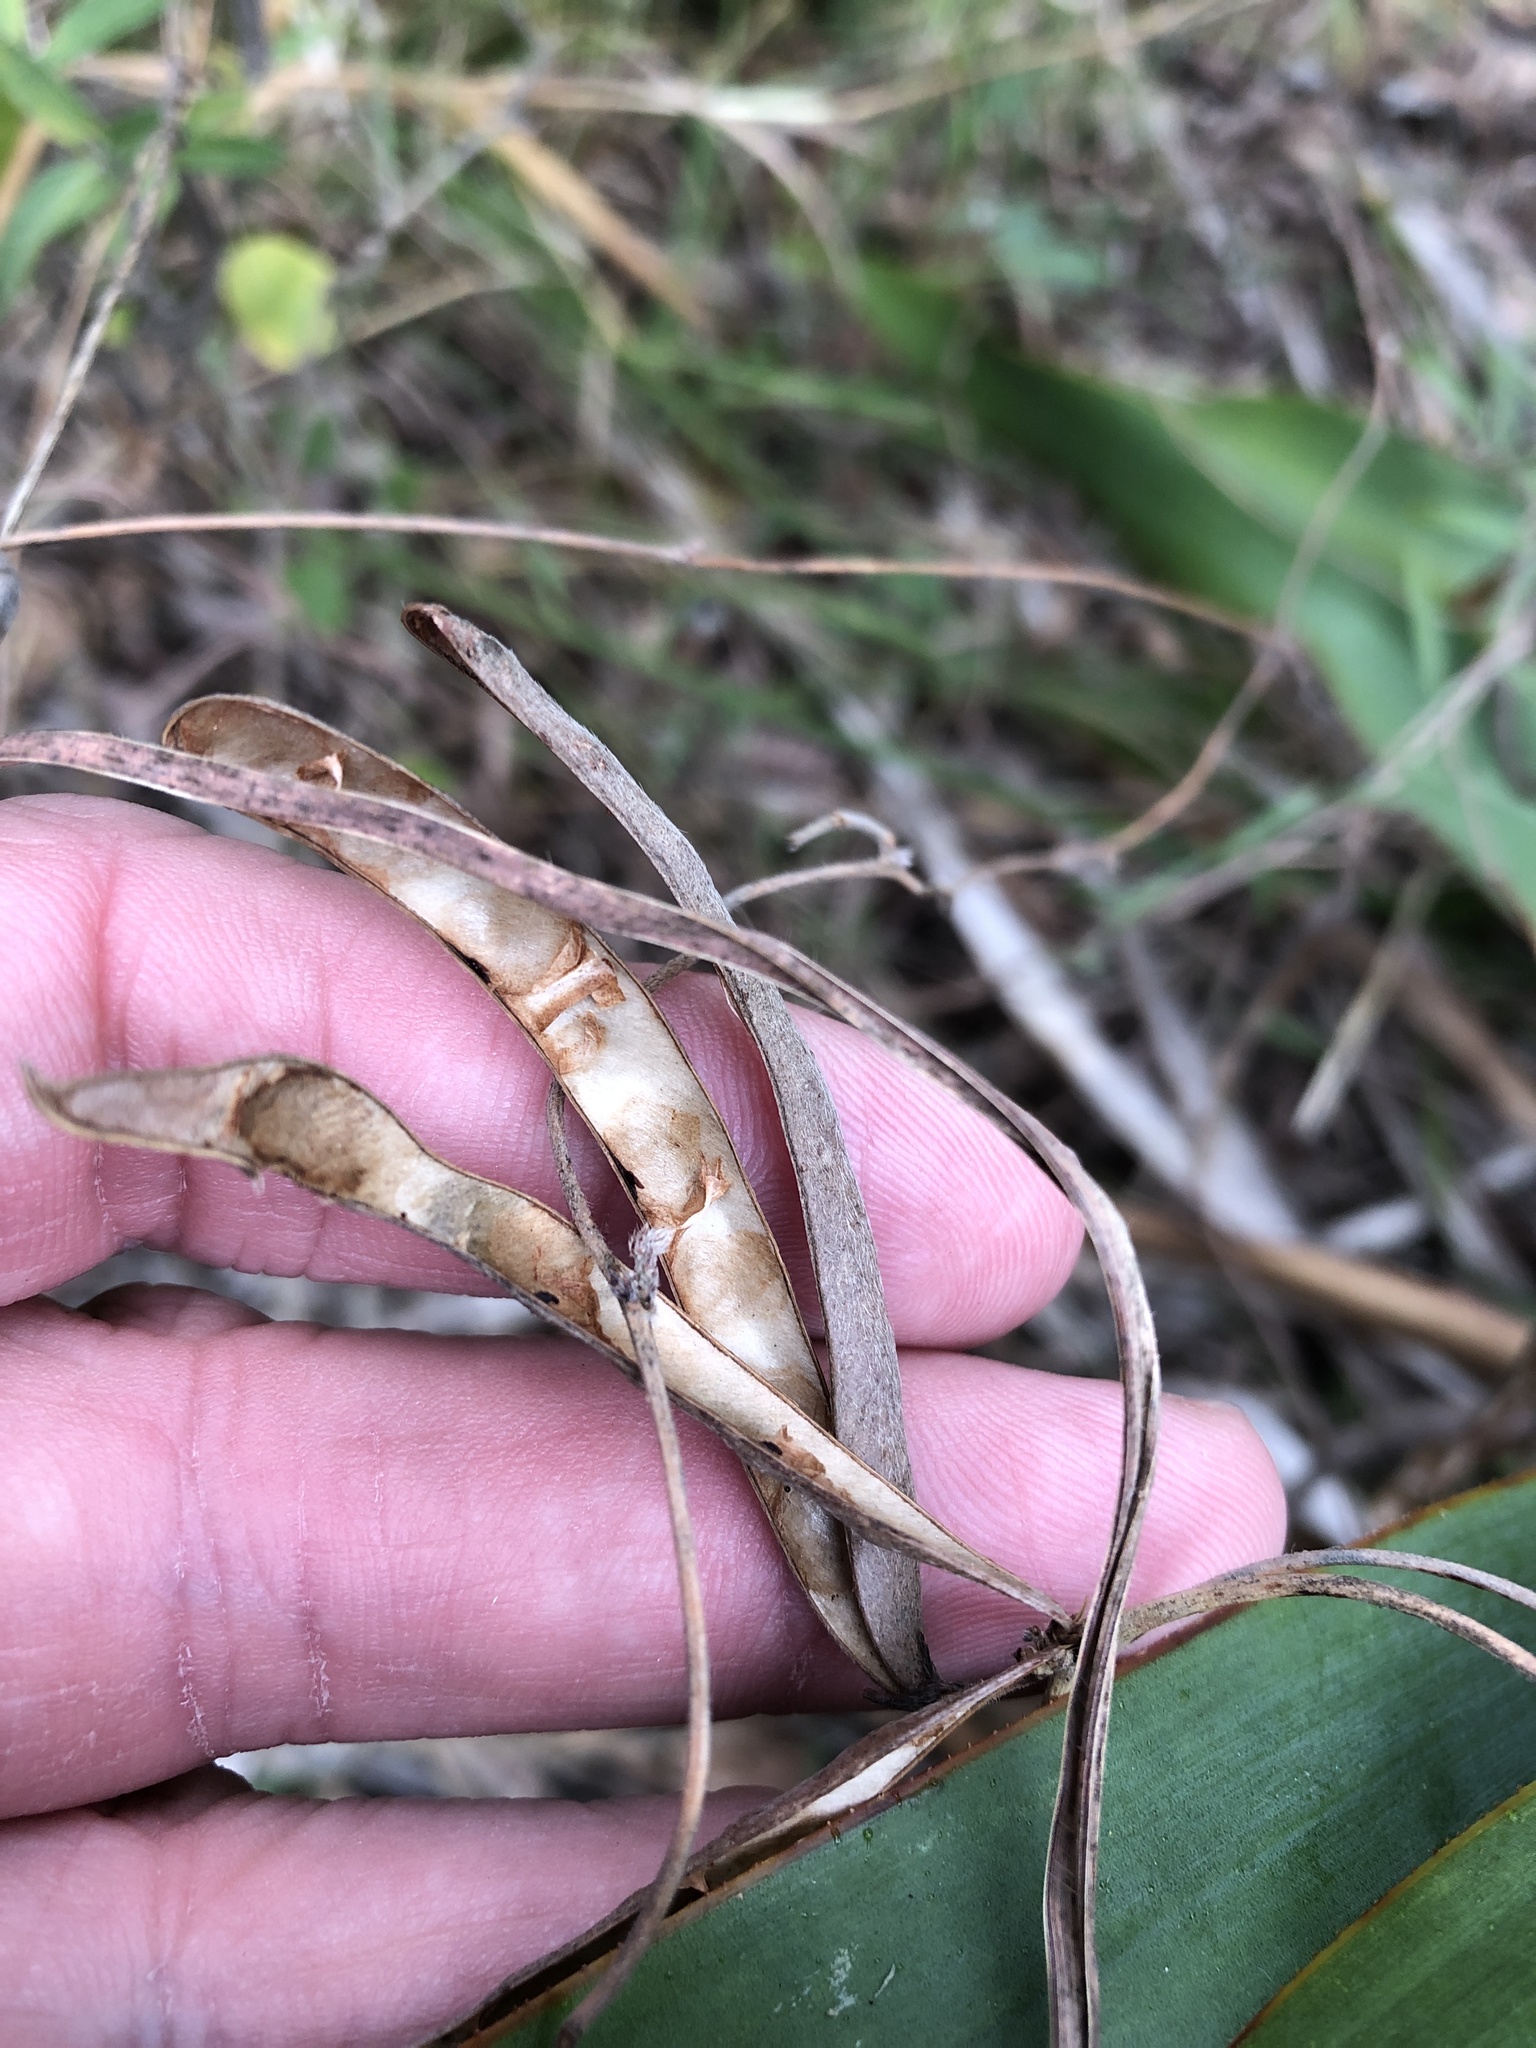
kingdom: Plantae
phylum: Tracheophyta
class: Magnoliopsida
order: Fabales
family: Fabaceae
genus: Galactia
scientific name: Galactia texana
